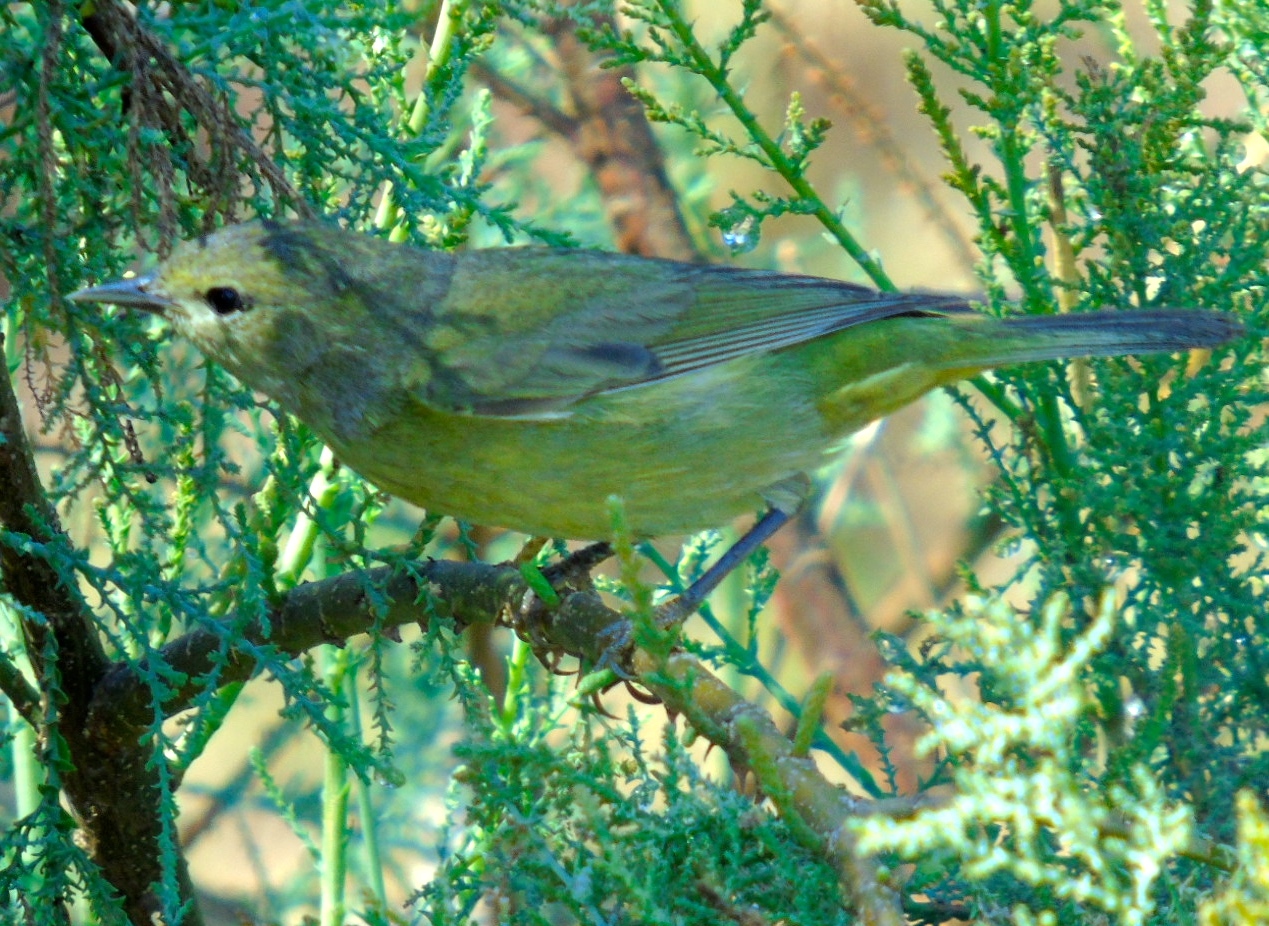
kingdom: Animalia
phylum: Chordata
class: Aves
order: Passeriformes
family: Parulidae
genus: Leiothlypis
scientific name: Leiothlypis celata
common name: Orange-crowned warbler
